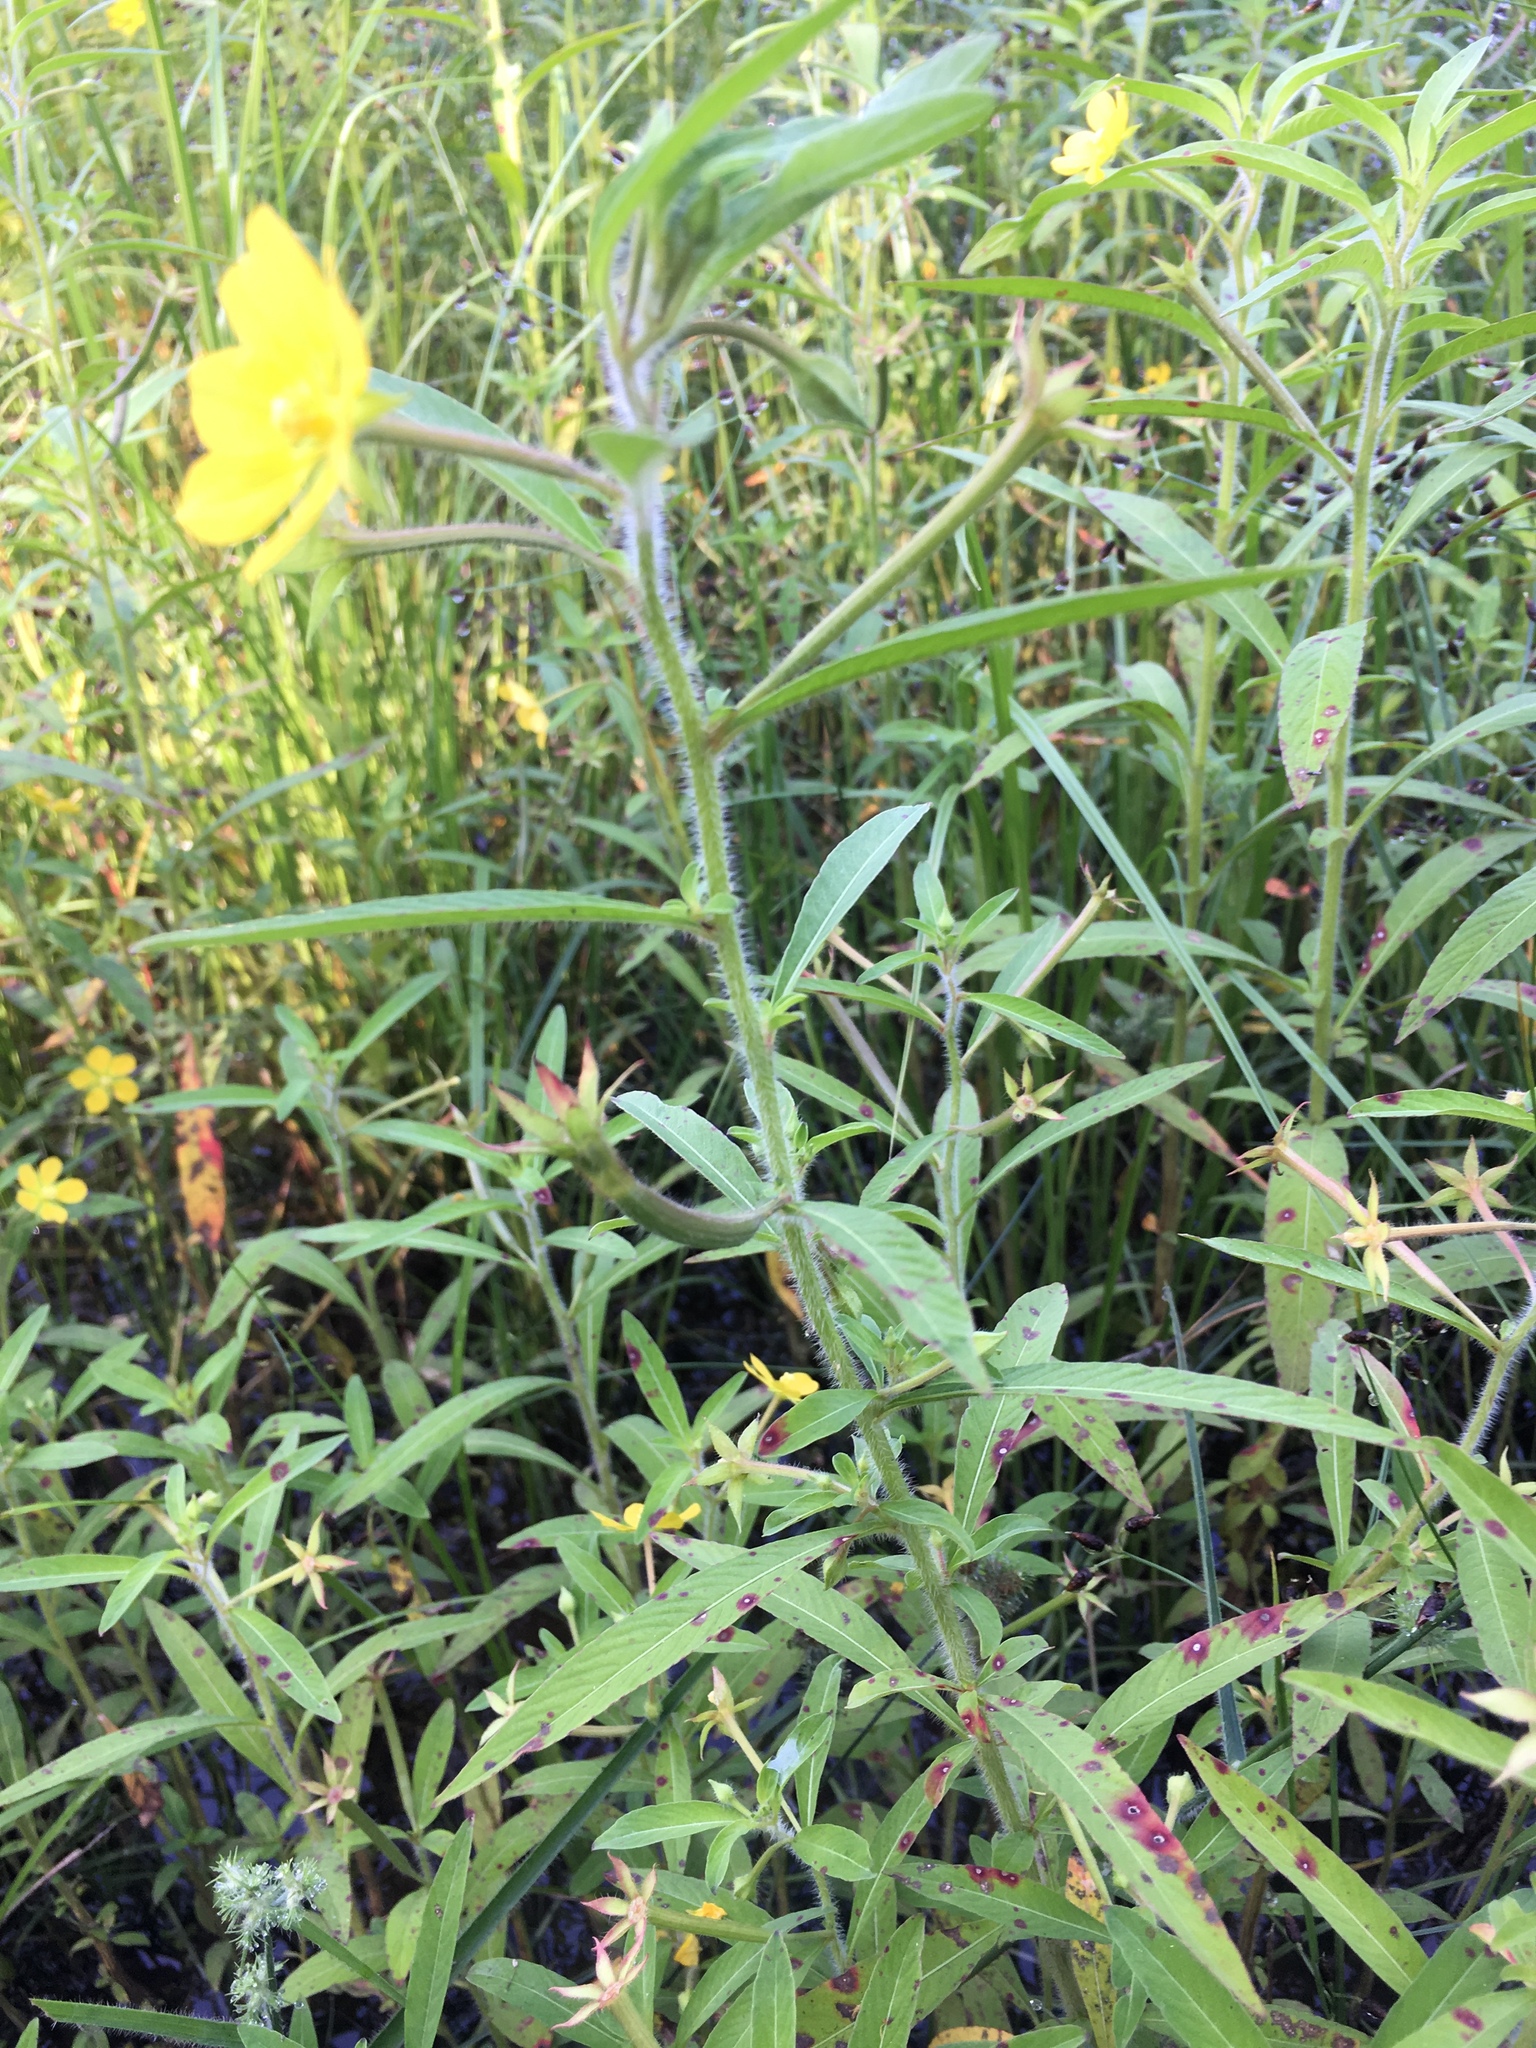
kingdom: Plantae
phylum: Tracheophyta
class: Magnoliopsida
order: Myrtales
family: Onagraceae
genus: Ludwigia
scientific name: Ludwigia leptocarpa
